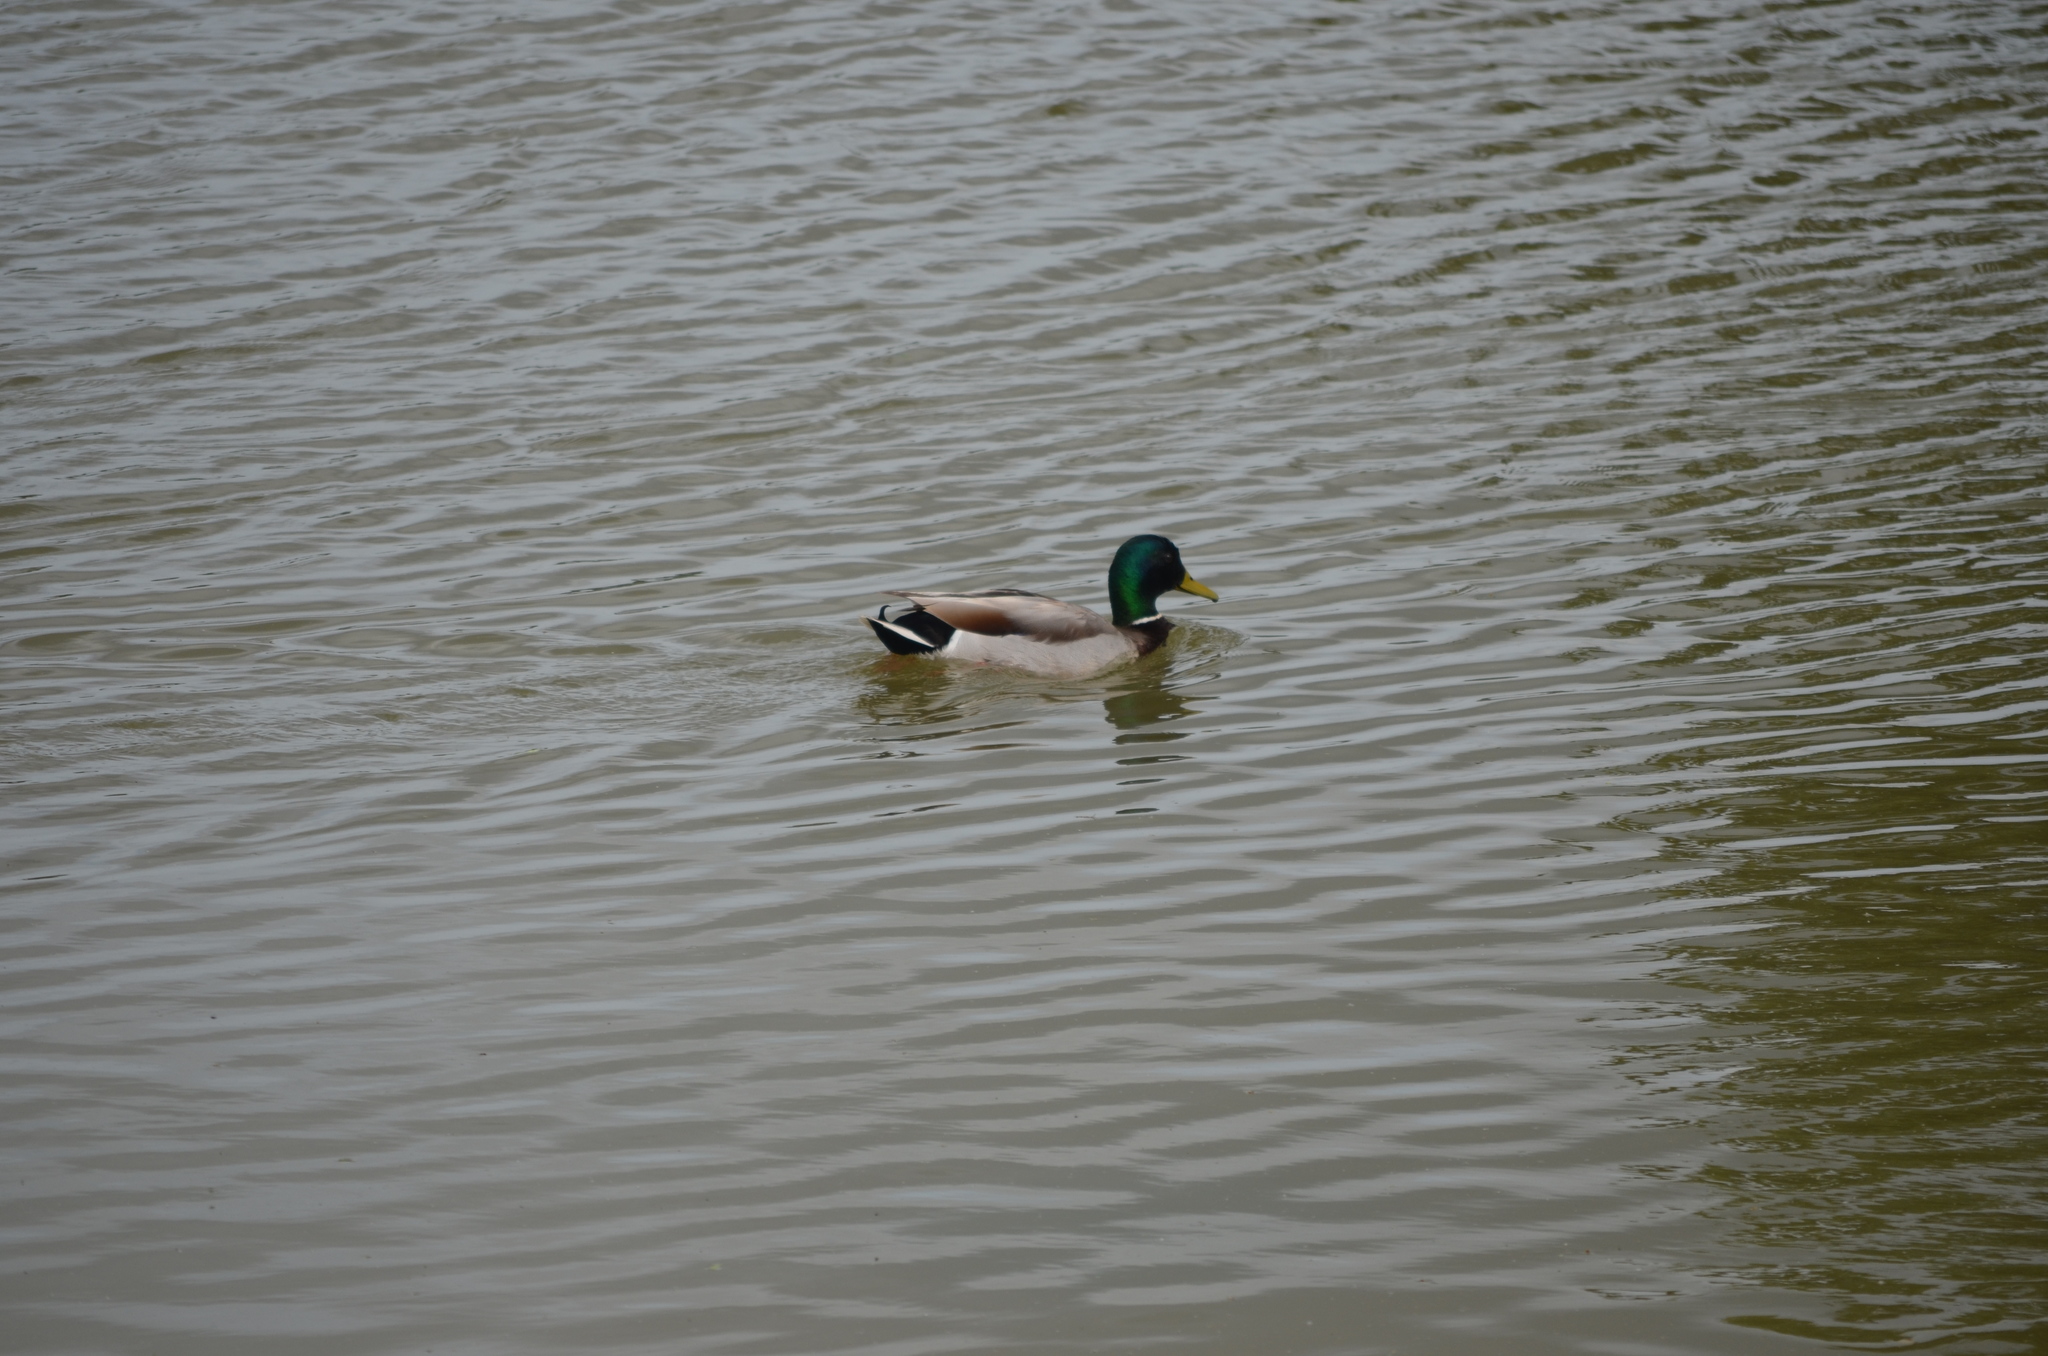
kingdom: Animalia
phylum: Chordata
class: Aves
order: Anseriformes
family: Anatidae
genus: Anas
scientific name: Anas platyrhynchos
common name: Mallard
